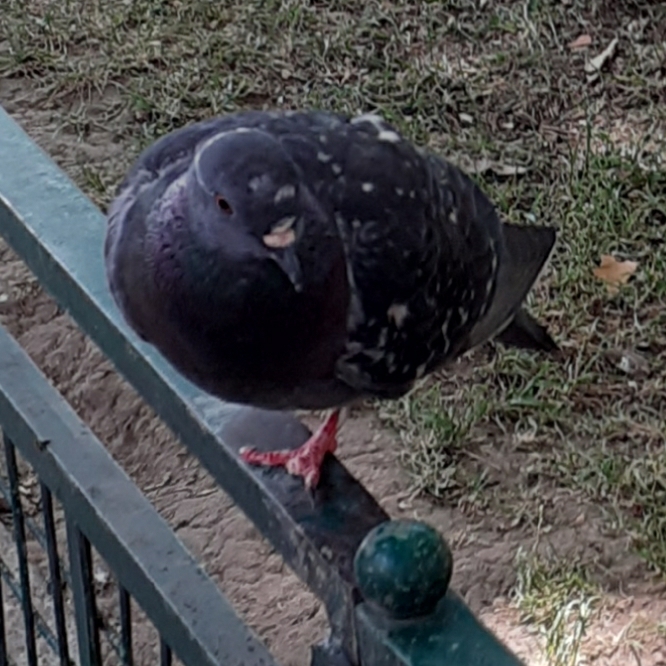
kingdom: Animalia
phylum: Chordata
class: Aves
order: Columbiformes
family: Columbidae
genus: Columba
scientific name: Columba livia
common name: Rock pigeon
